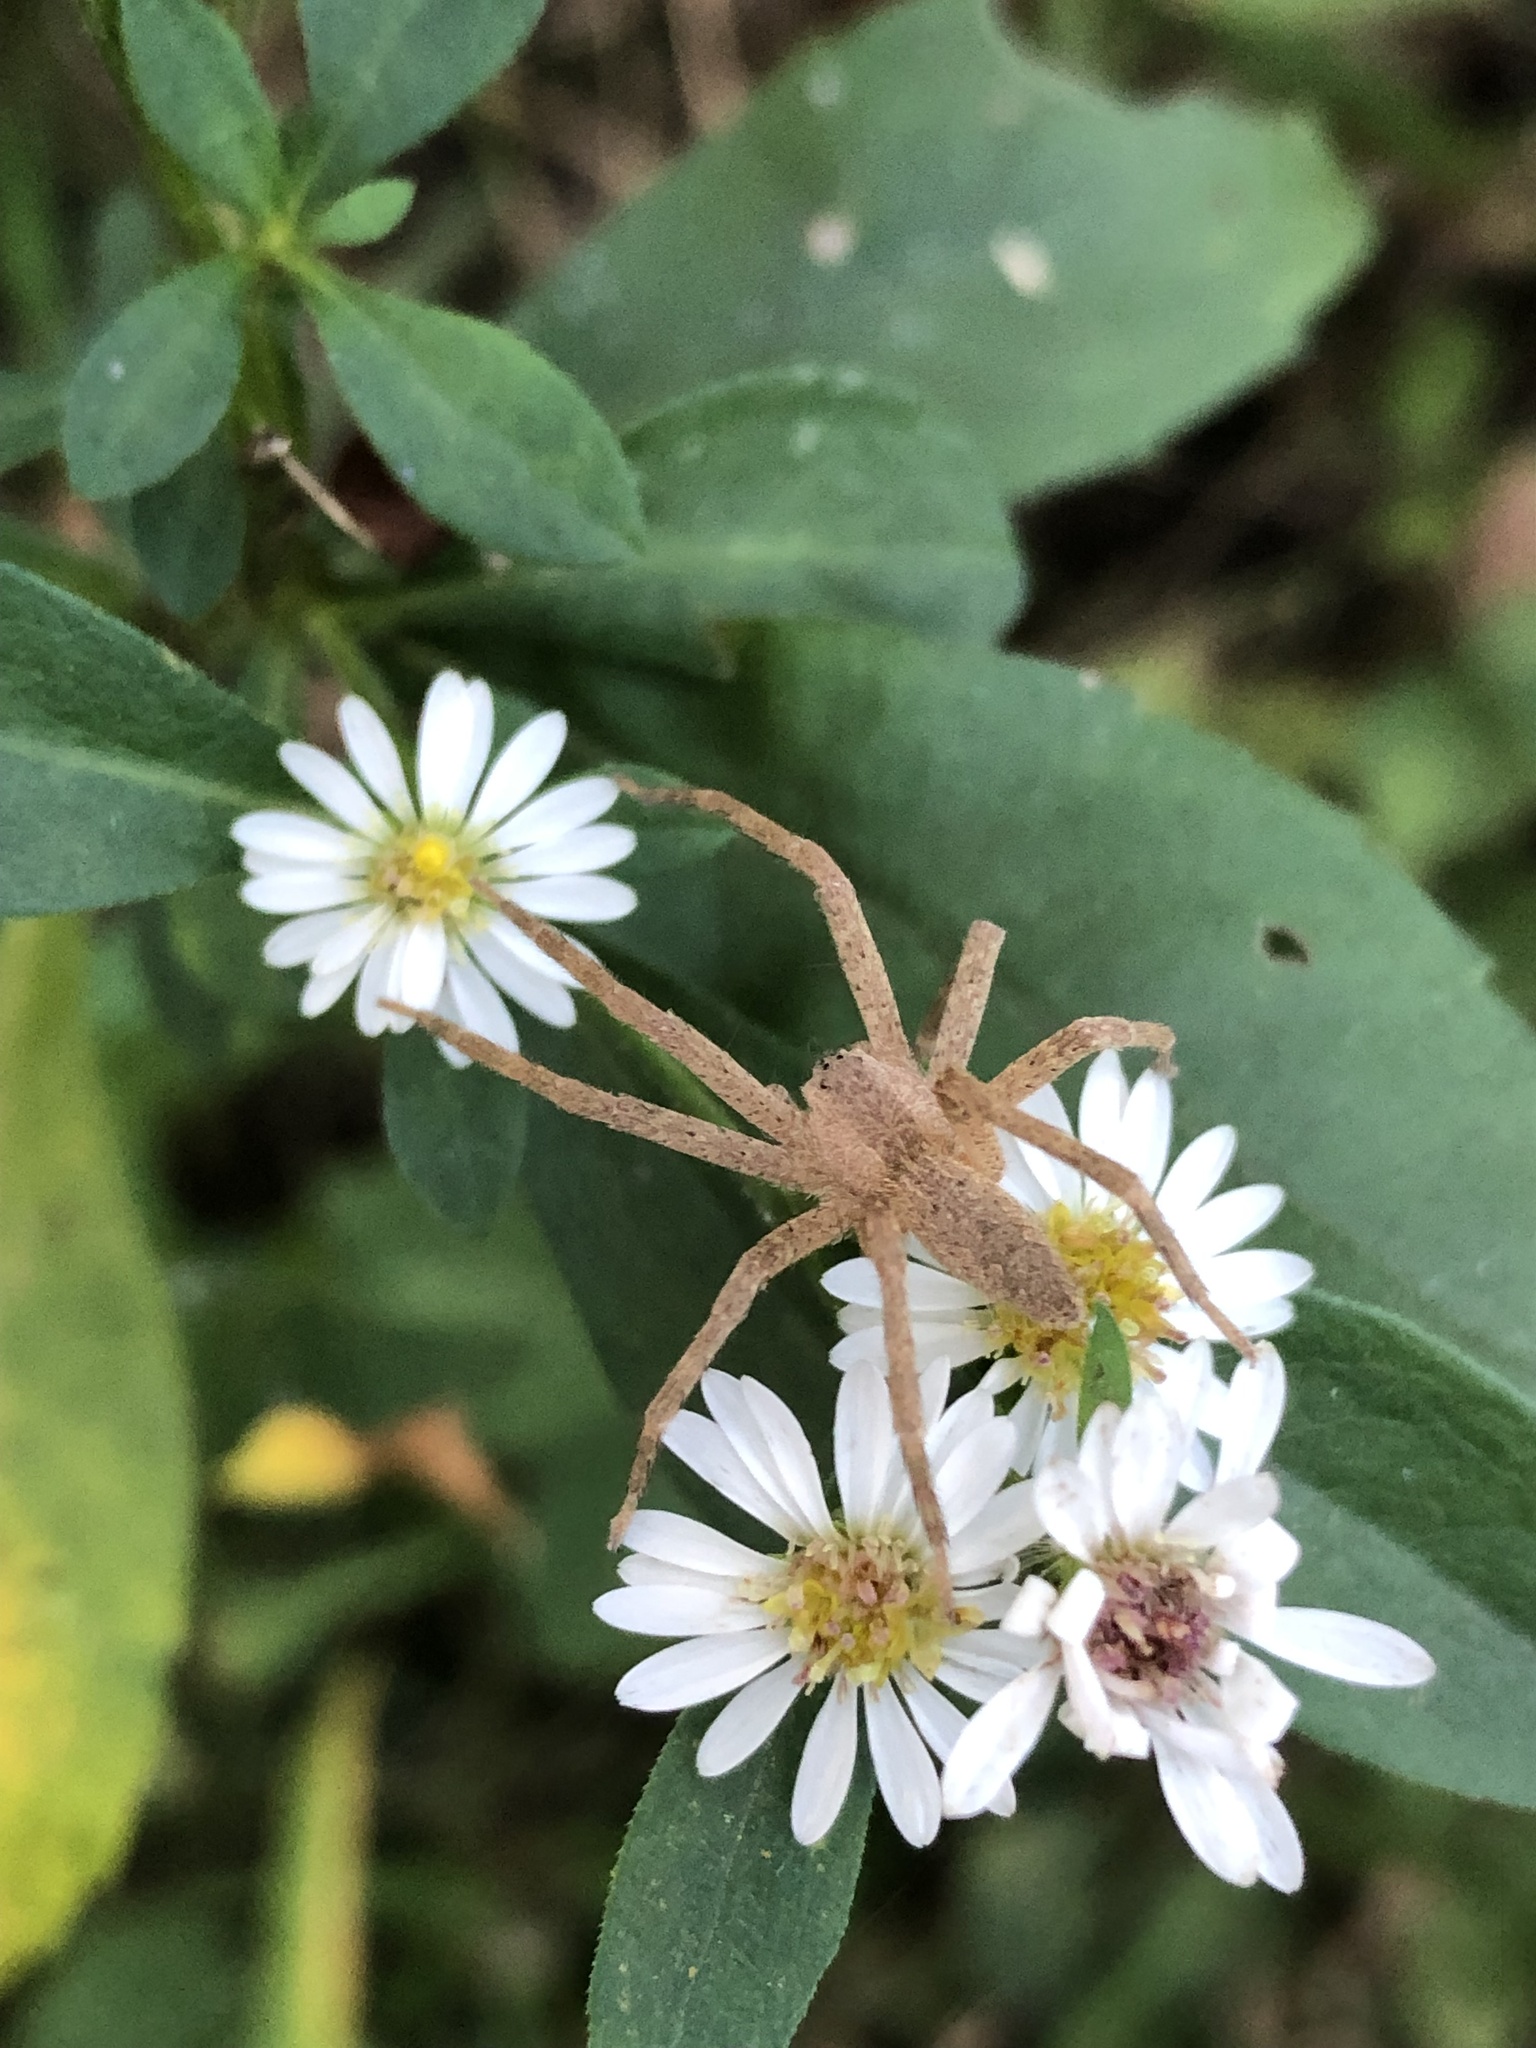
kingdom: Animalia
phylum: Arthropoda
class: Arachnida
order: Araneae
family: Pisauridae
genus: Pisaurina
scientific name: Pisaurina mira
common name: American nursery web spider
